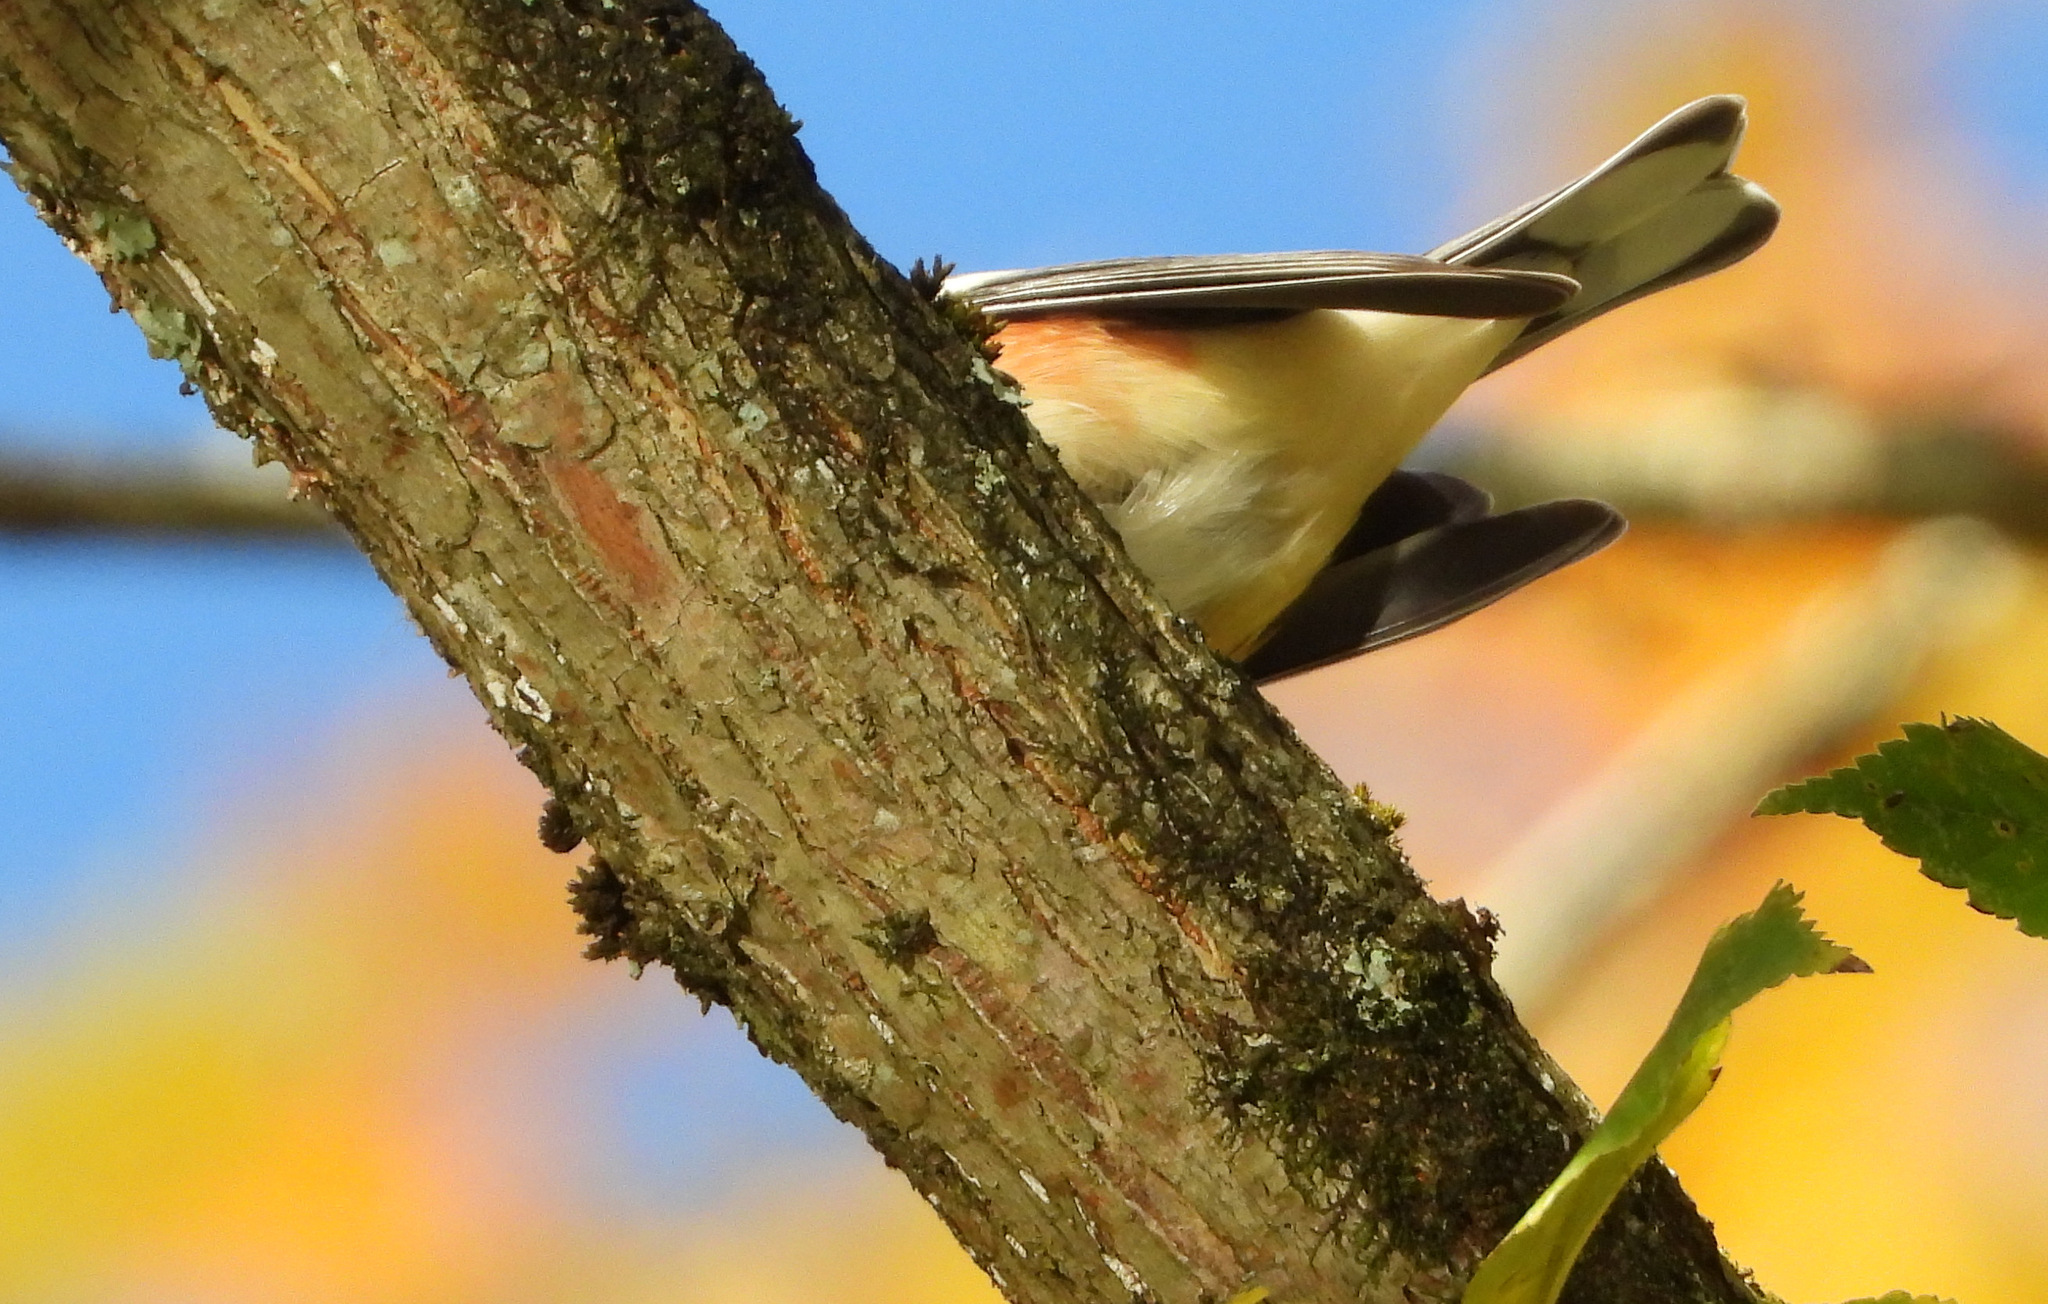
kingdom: Animalia
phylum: Chordata
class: Aves
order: Passeriformes
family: Parulidae
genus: Setophaga
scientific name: Setophaga castanea
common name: Bay-breasted warbler
